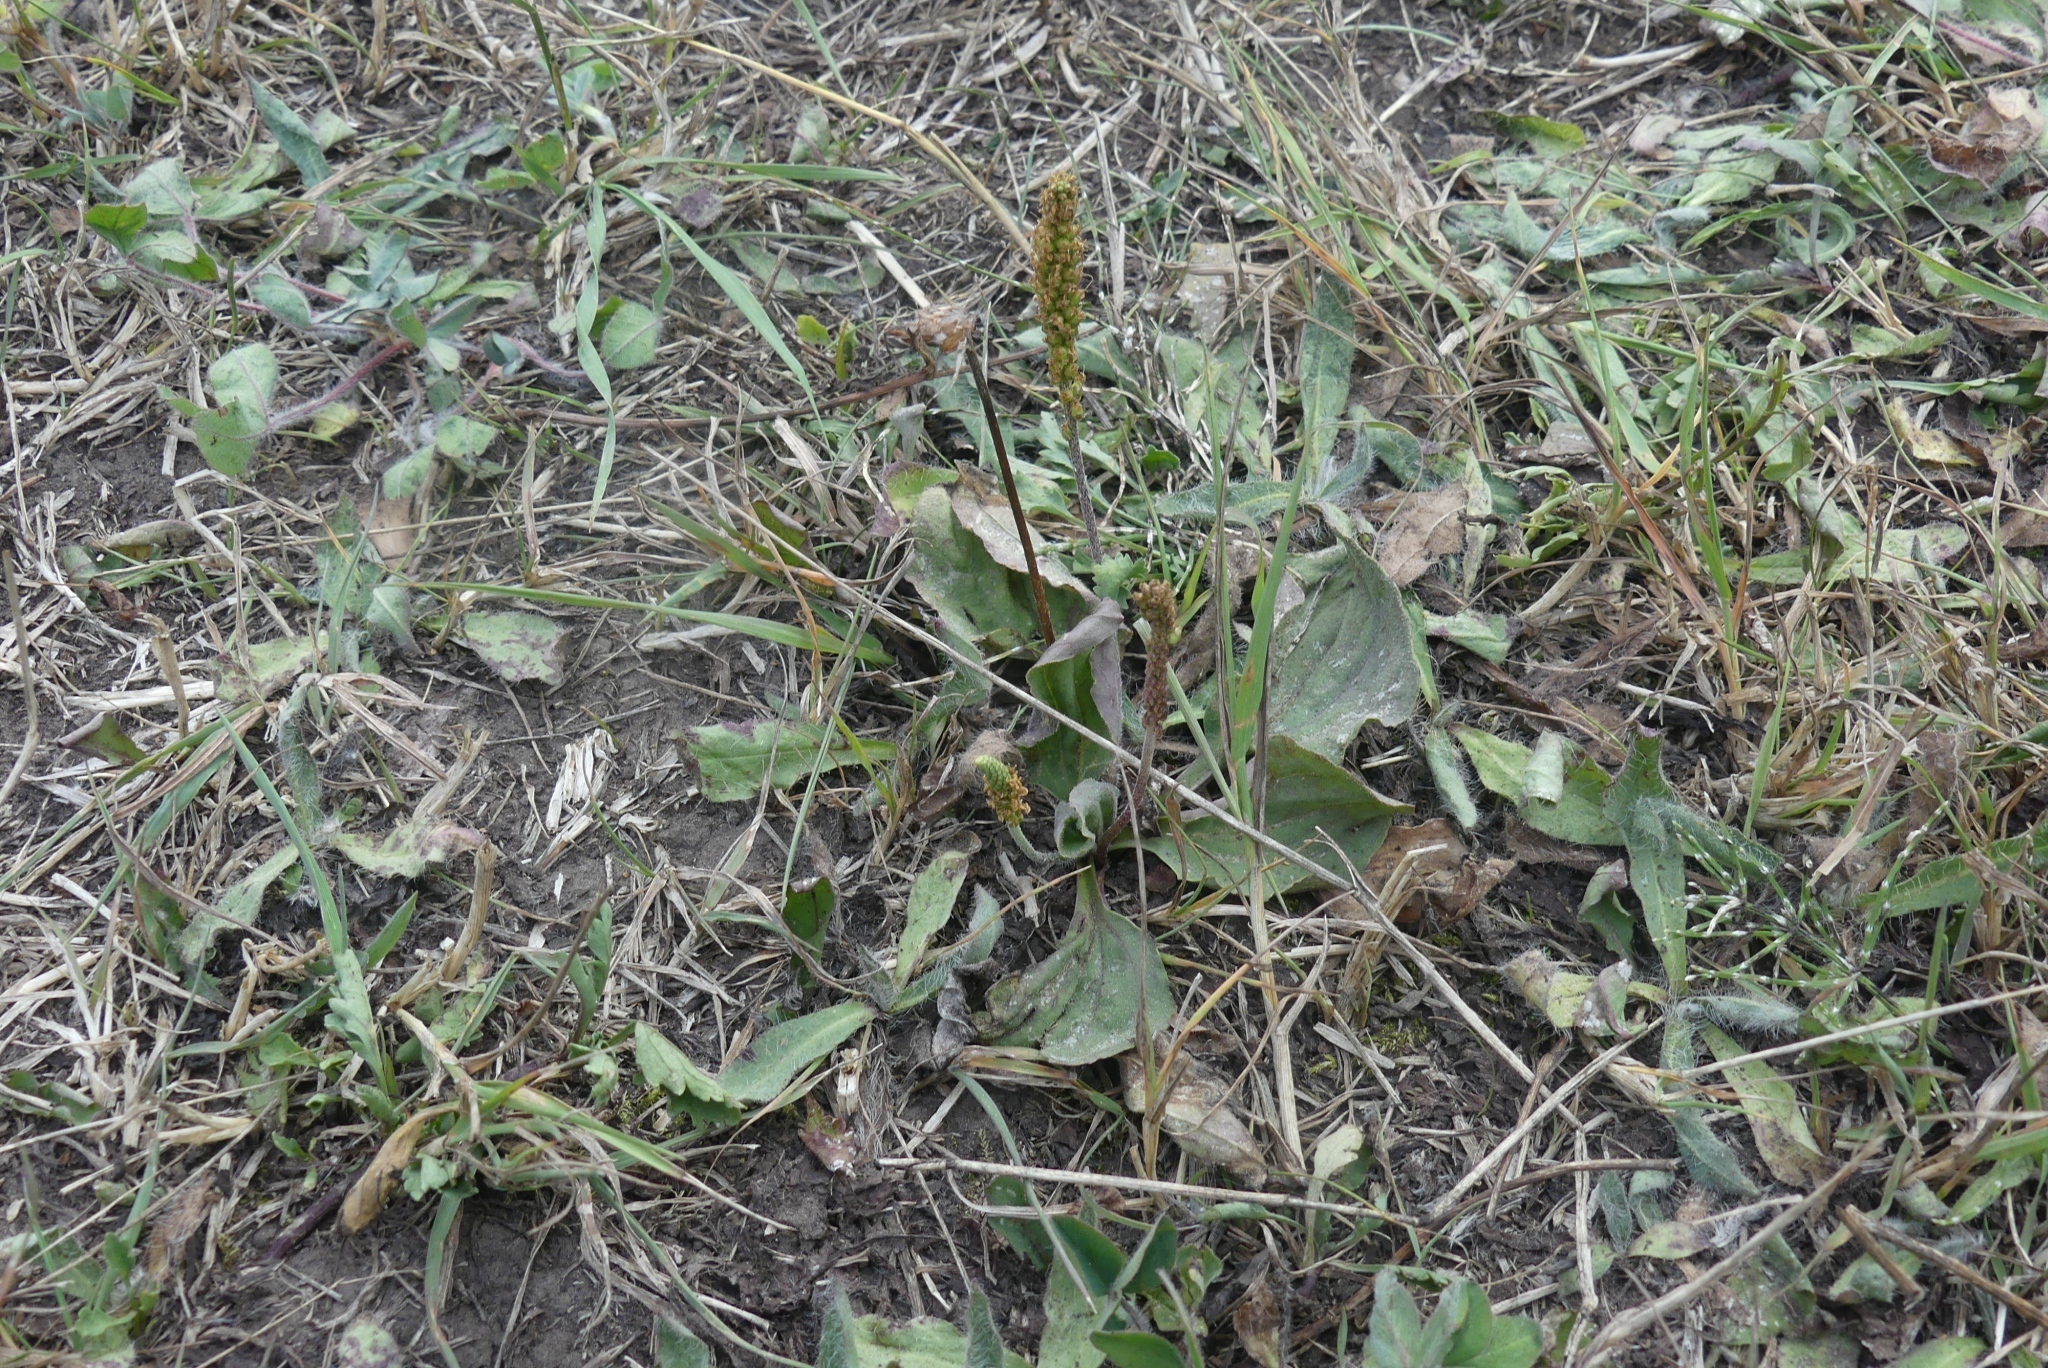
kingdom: Plantae
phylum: Tracheophyta
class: Magnoliopsida
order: Lamiales
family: Plantaginaceae
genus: Plantago
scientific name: Plantago major
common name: Common plantain
